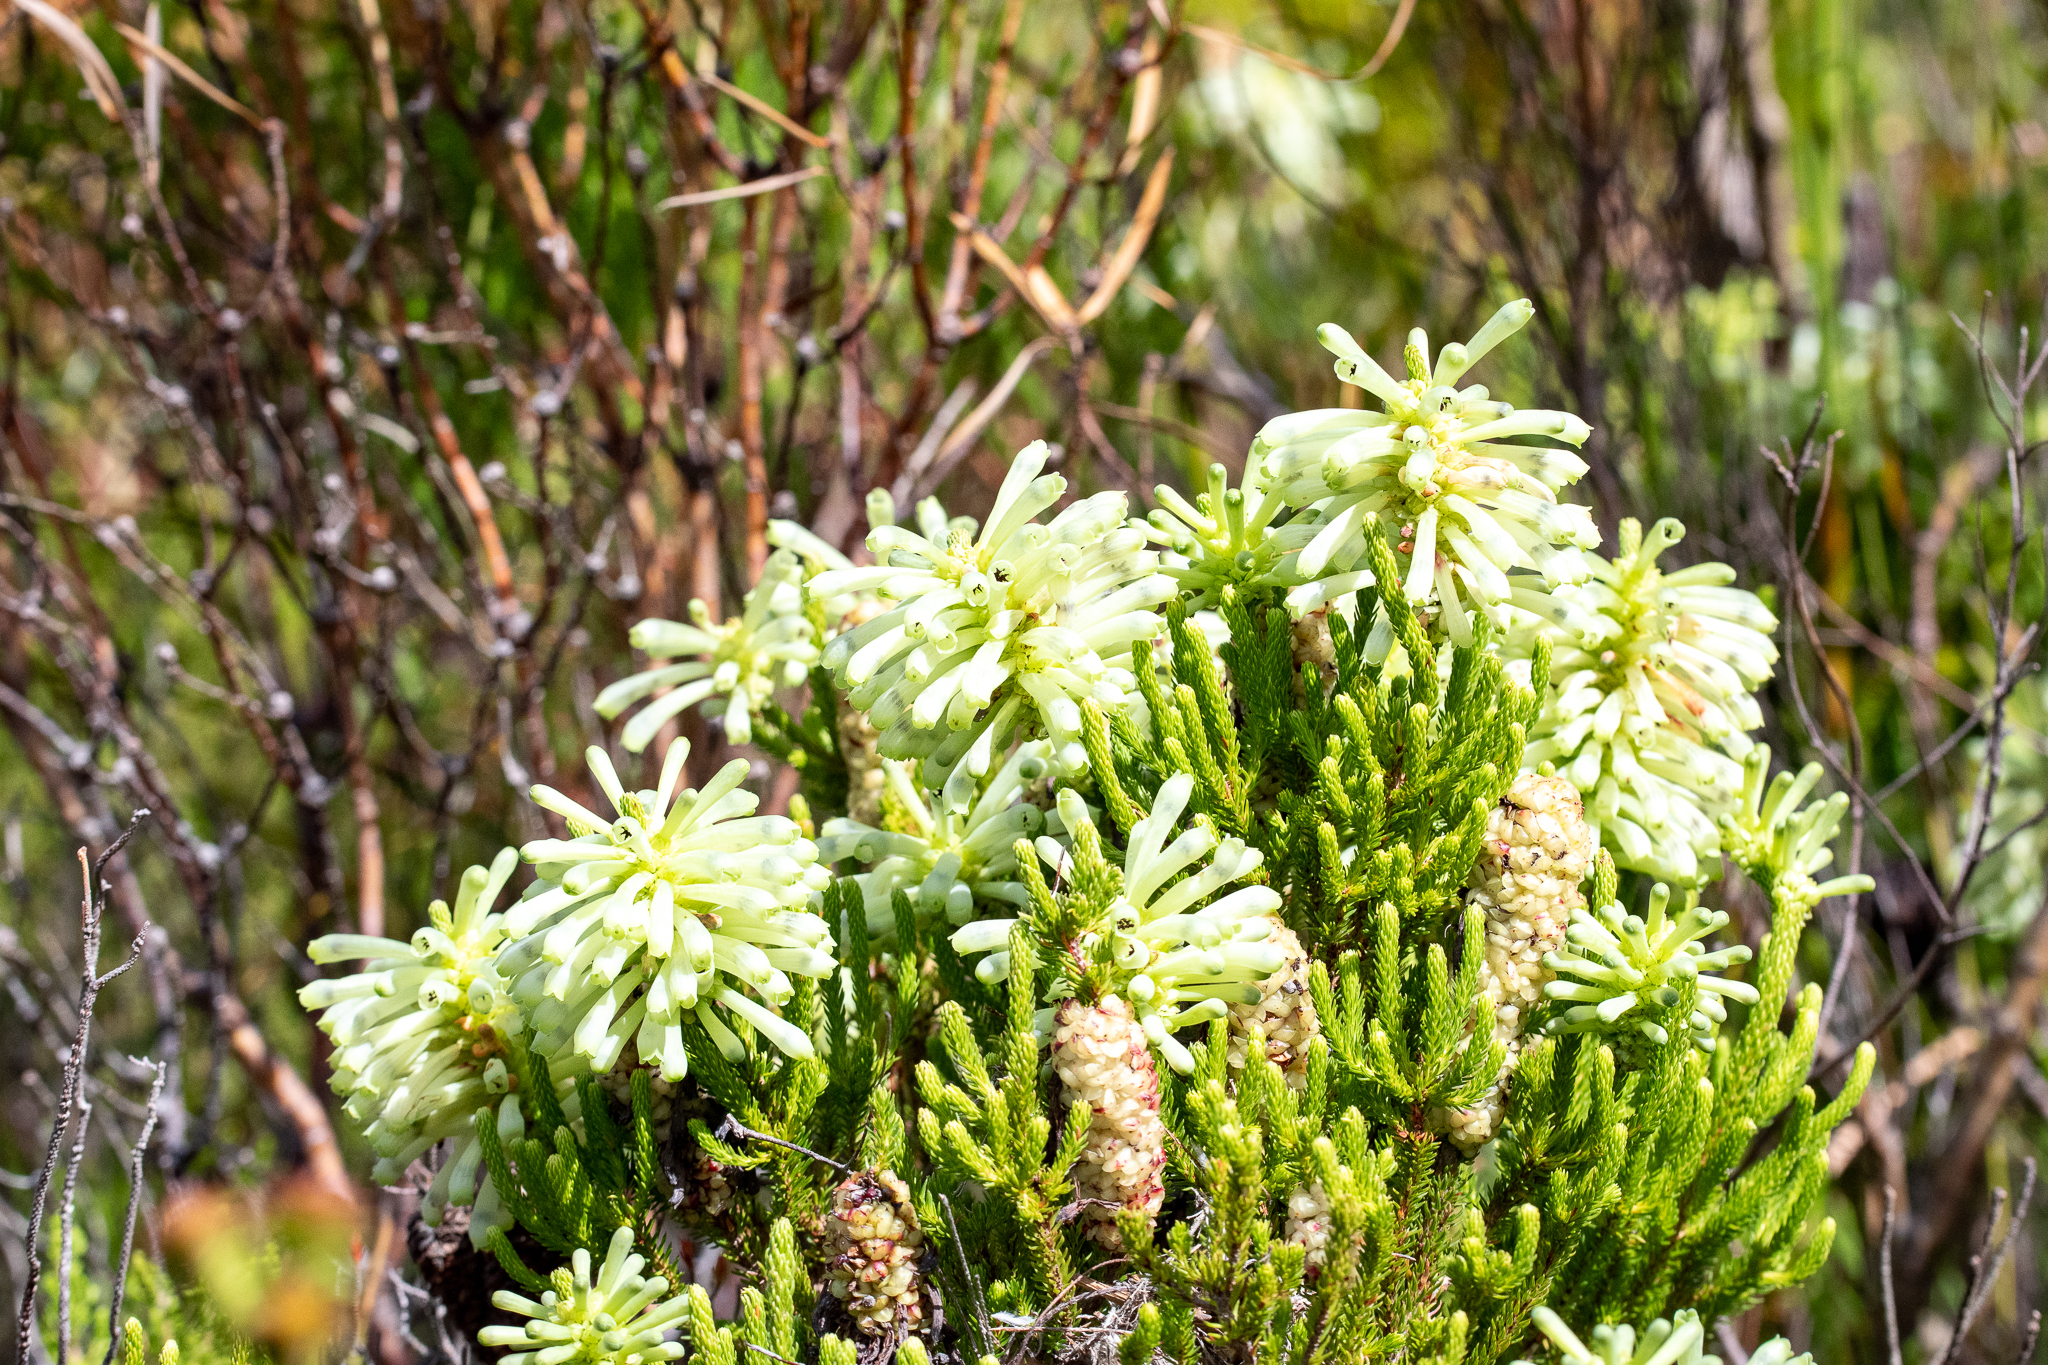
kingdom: Plantae
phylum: Tracheophyta
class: Magnoliopsida
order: Ericales
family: Ericaceae
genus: Erica
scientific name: Erica sessiliflora
